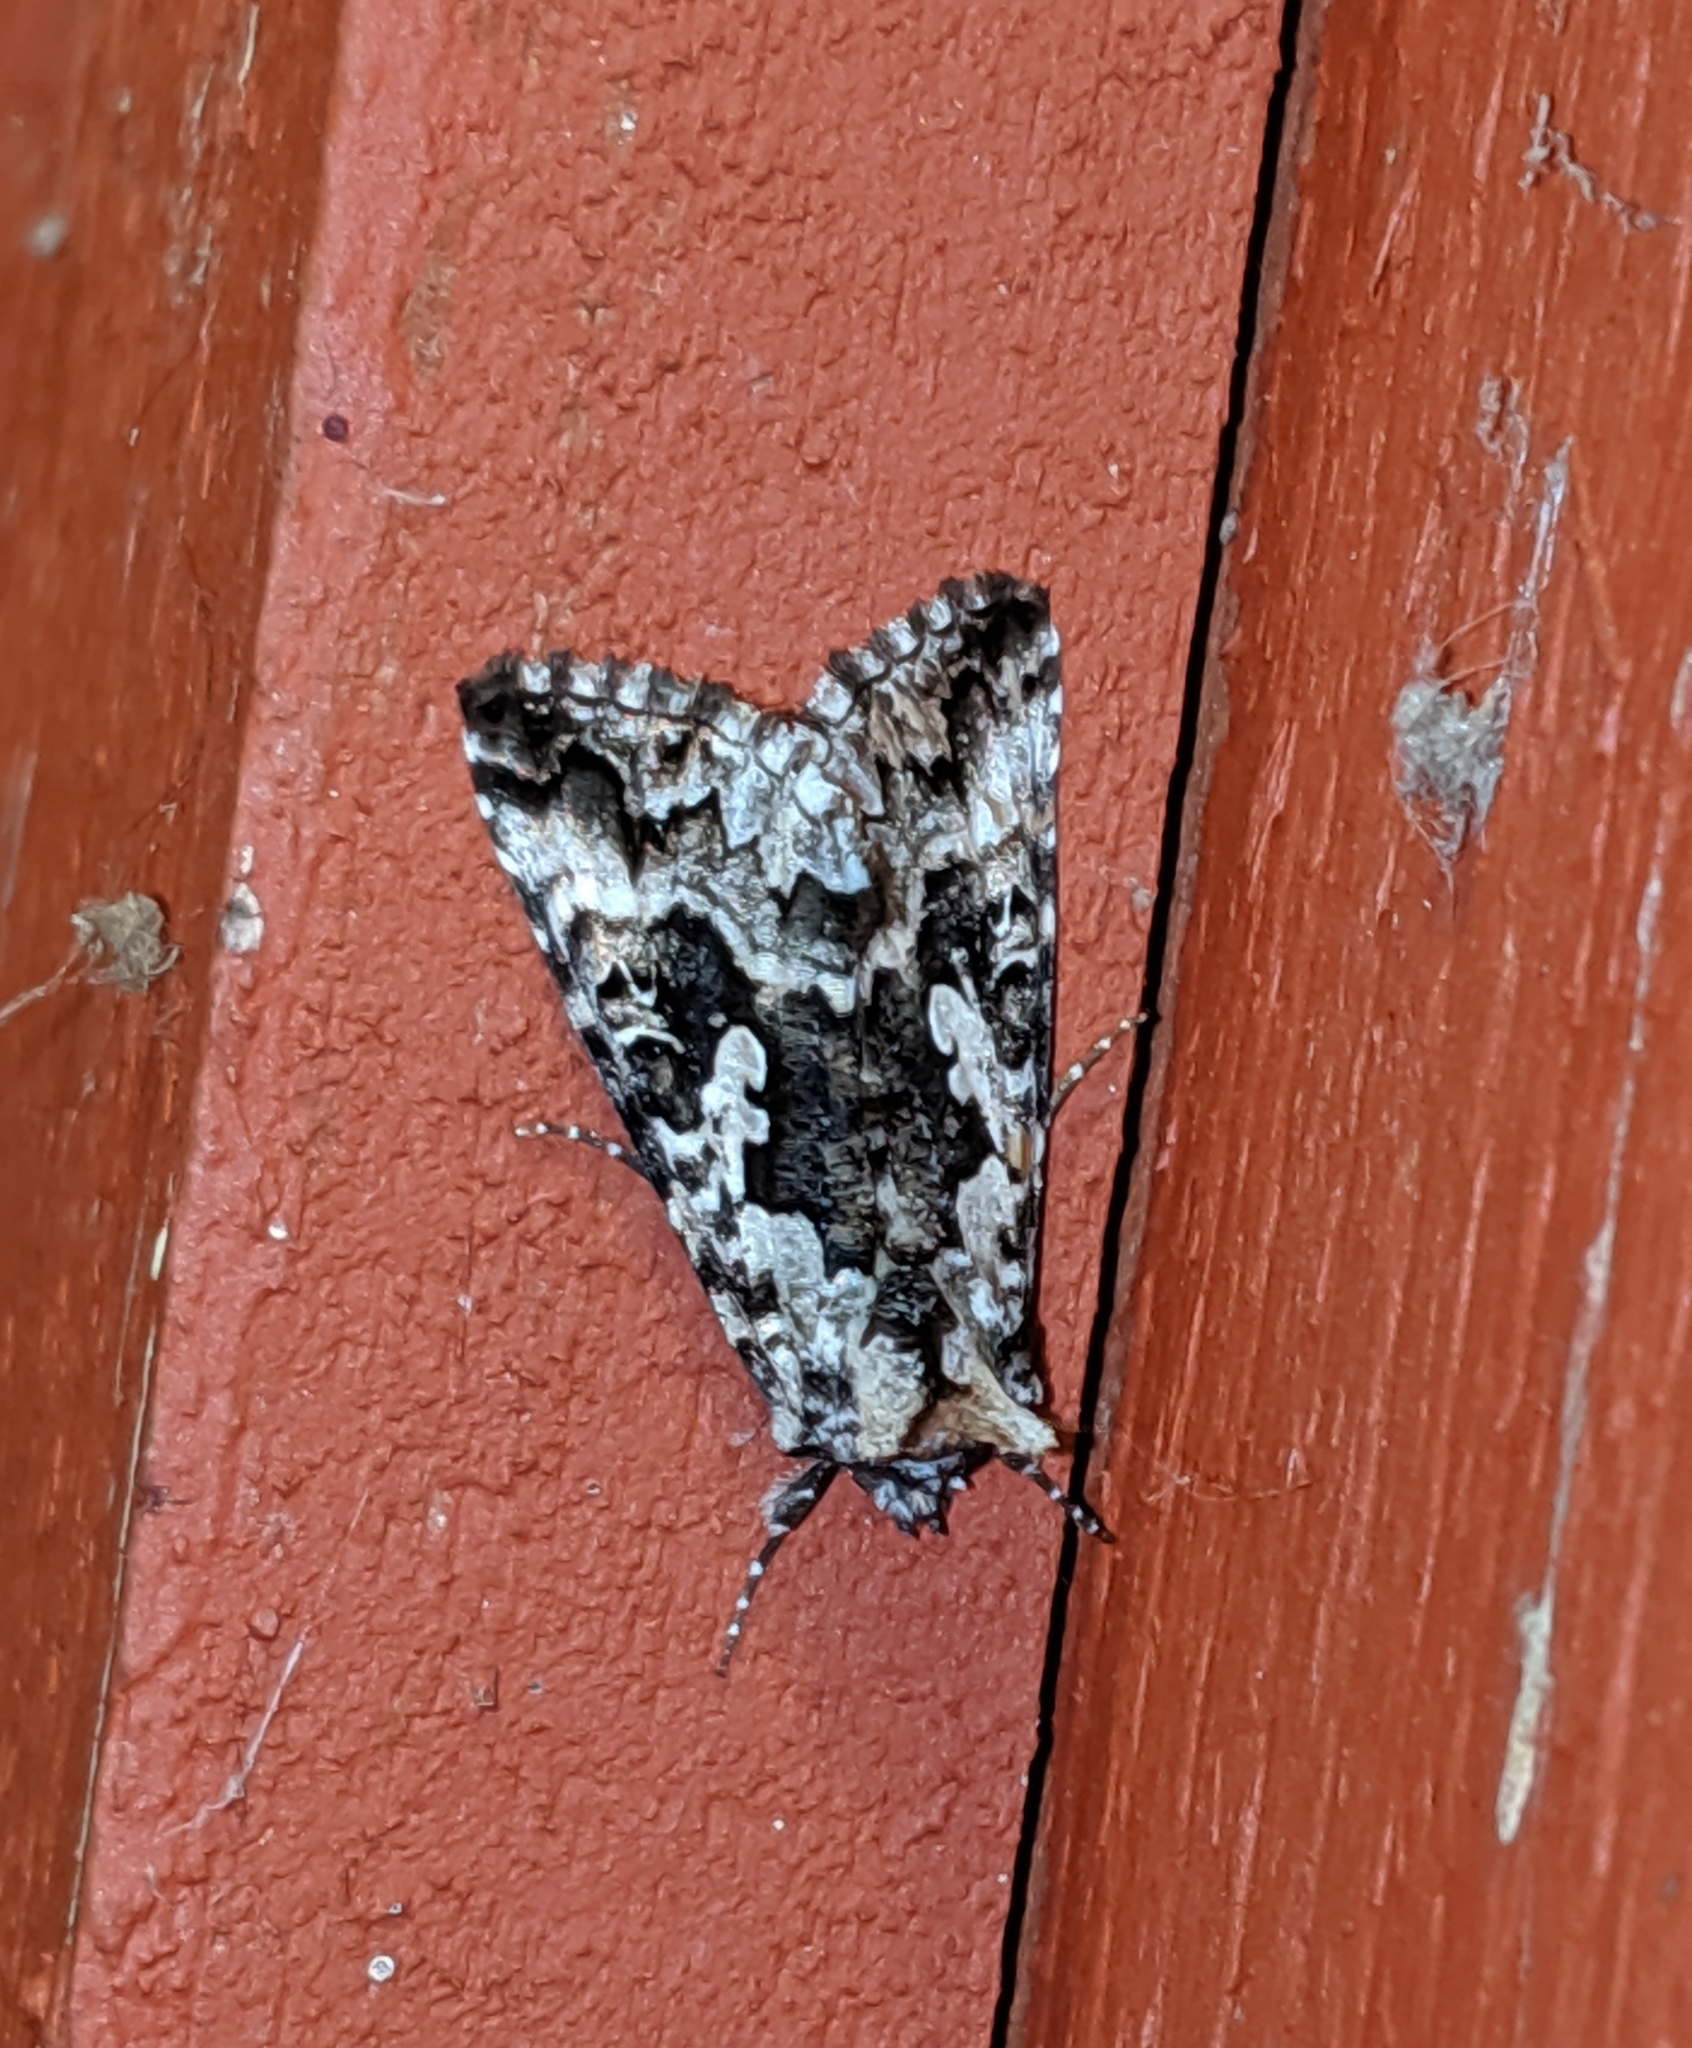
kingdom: Animalia
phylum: Arthropoda
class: Insecta
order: Lepidoptera
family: Noctuidae
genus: Syngrapha
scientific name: Syngrapha rectangula
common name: Angulated cutworm
